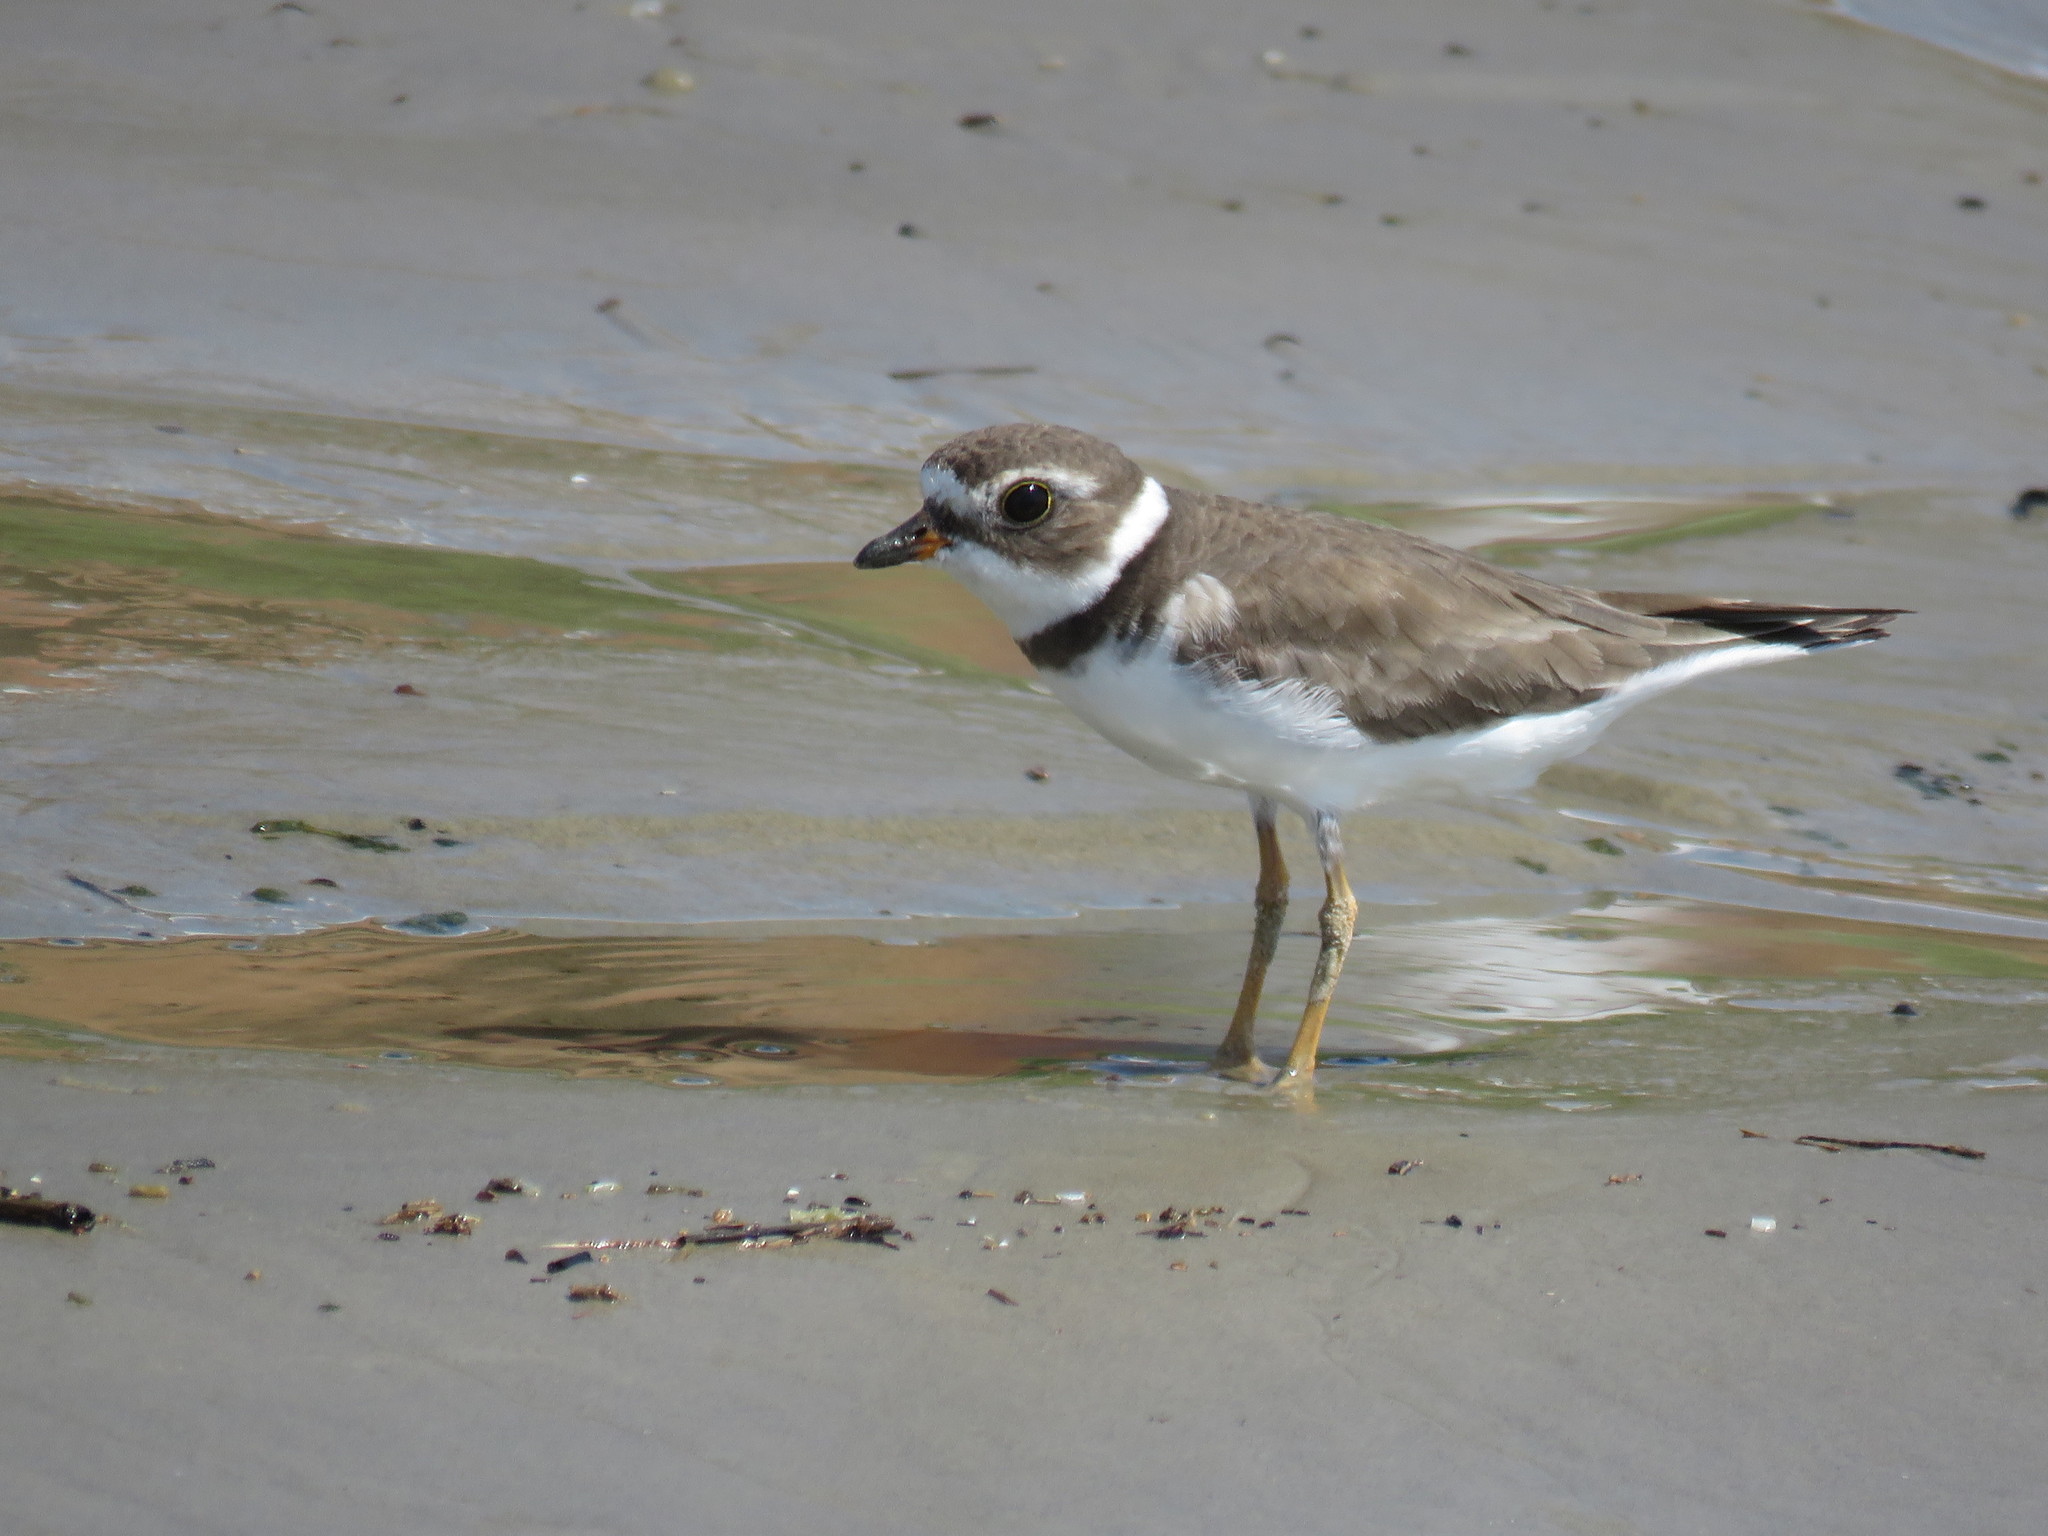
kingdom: Animalia
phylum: Chordata
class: Aves
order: Charadriiformes
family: Charadriidae
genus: Charadrius
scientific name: Charadrius semipalmatus
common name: Semipalmated plover
